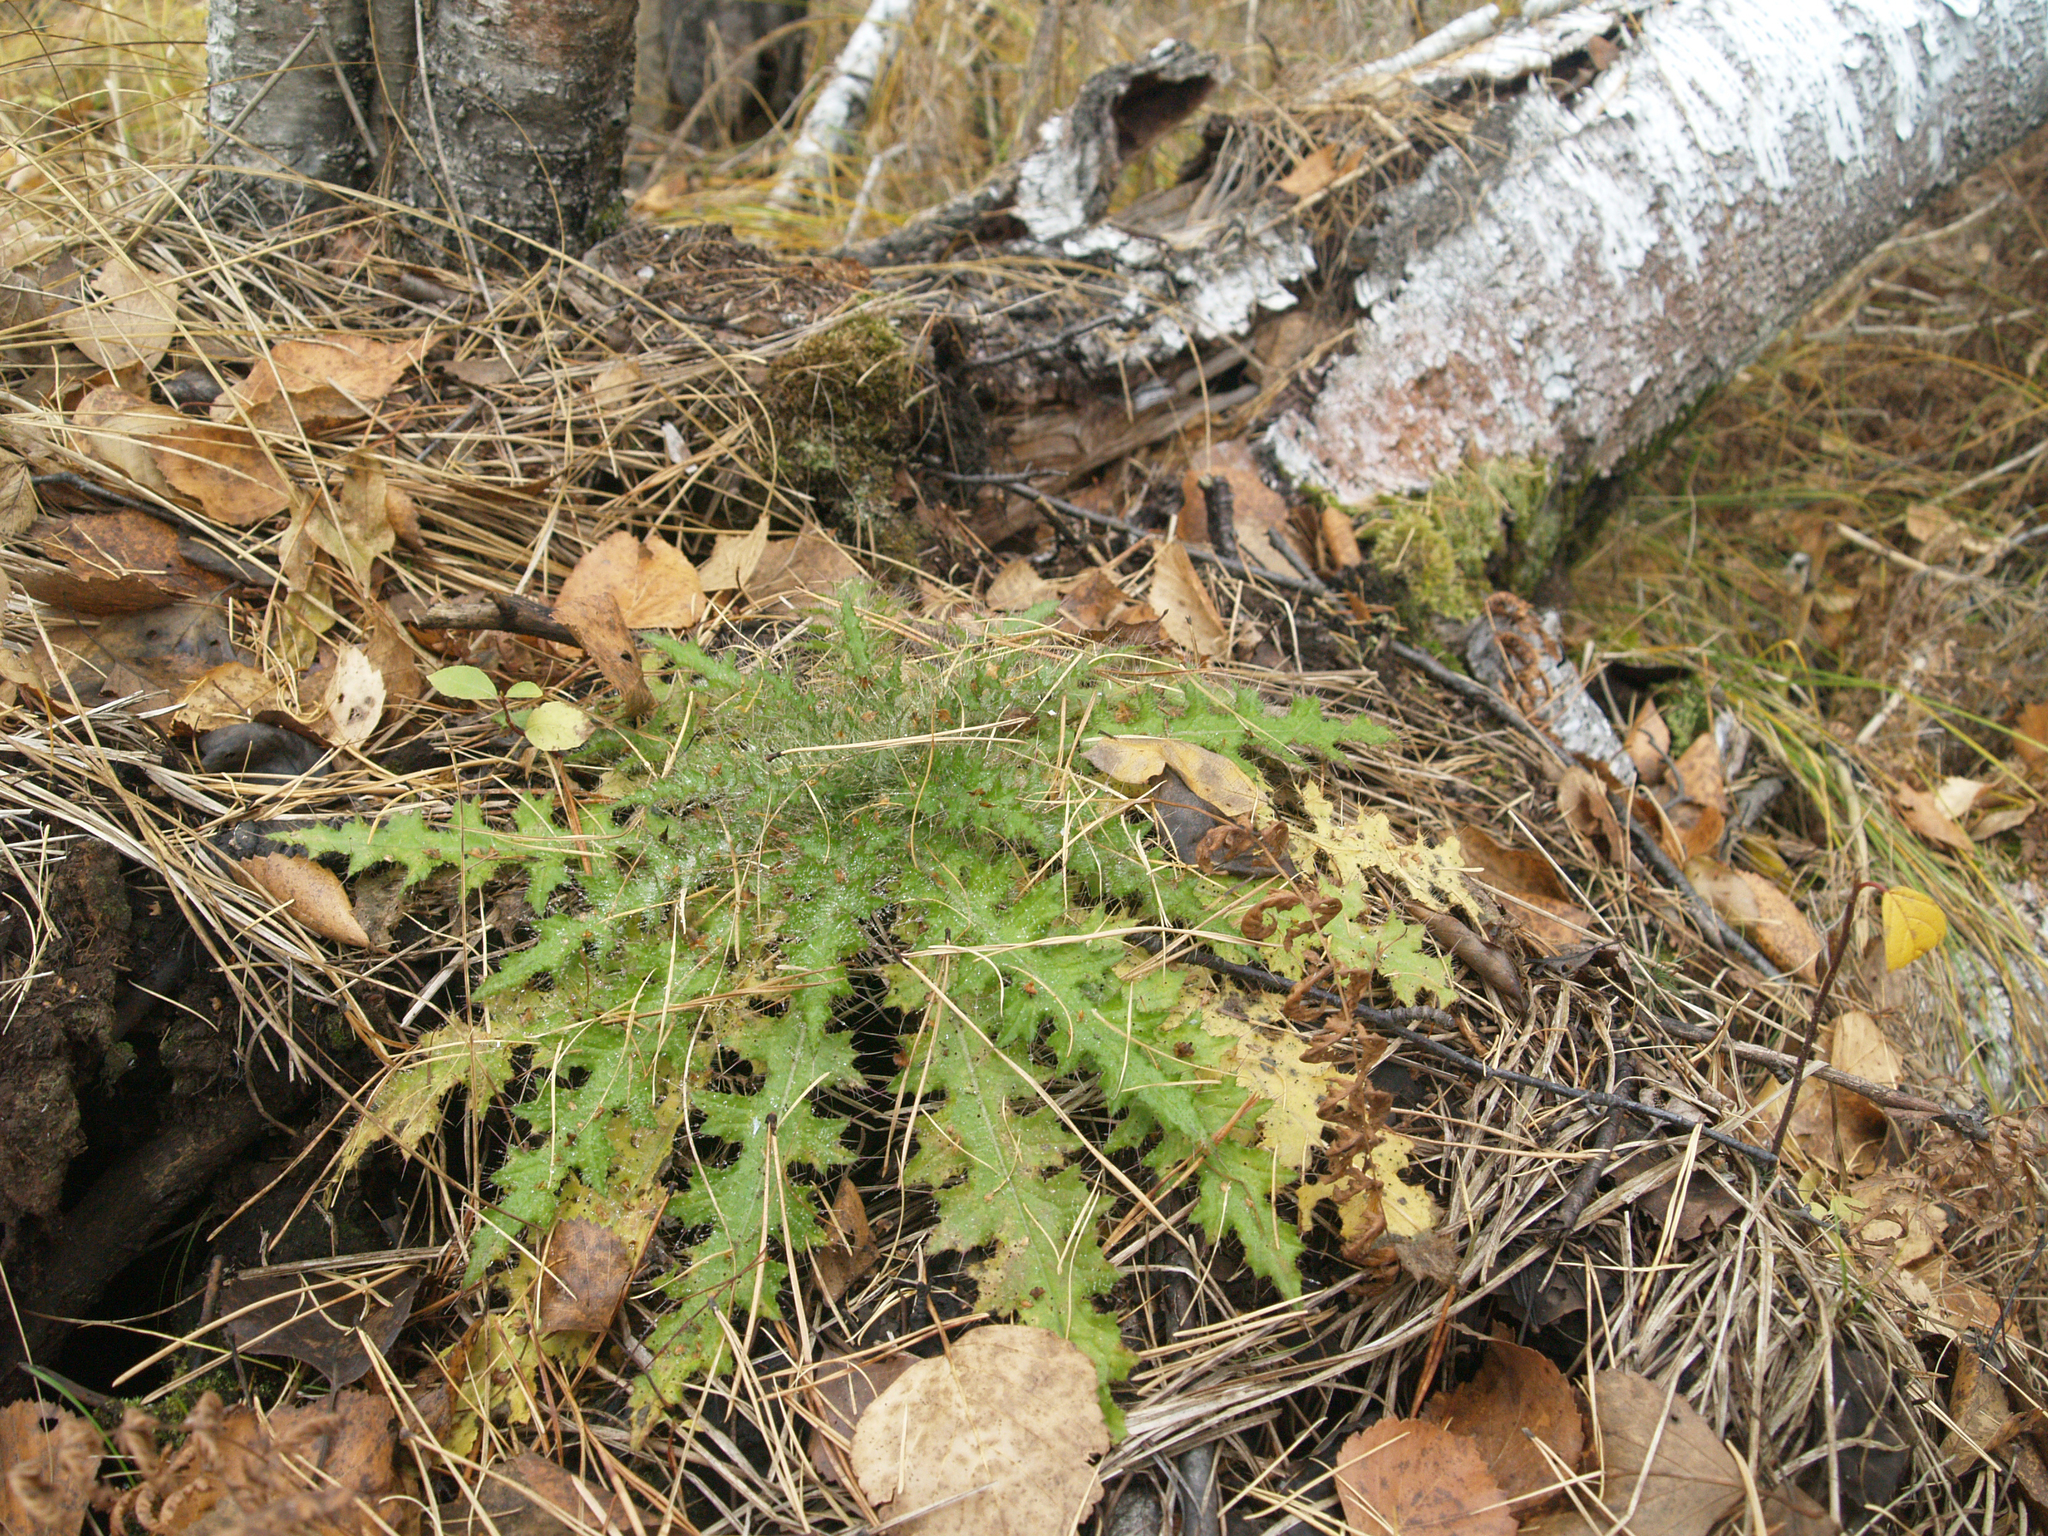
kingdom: Plantae
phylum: Tracheophyta
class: Magnoliopsida
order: Asterales
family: Asteraceae
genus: Cirsium
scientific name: Cirsium palustre
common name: Marsh thistle
